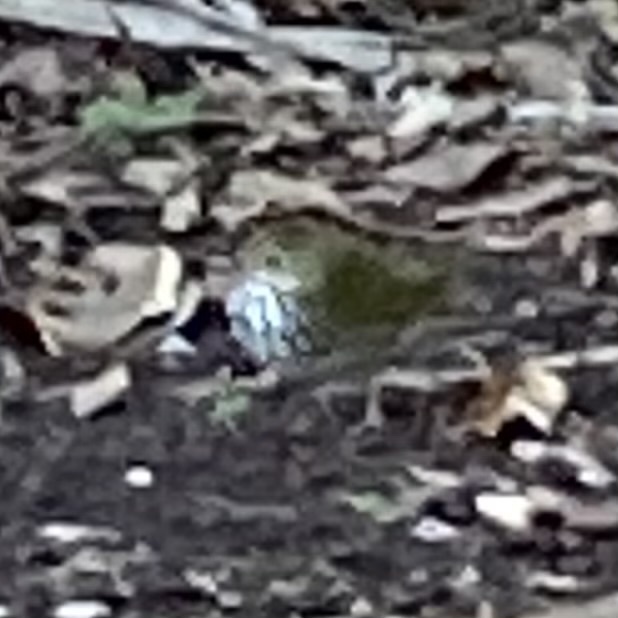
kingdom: Animalia
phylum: Chordata
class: Aves
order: Passeriformes
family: Parulidae
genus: Seiurus
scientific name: Seiurus aurocapilla
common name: Ovenbird
